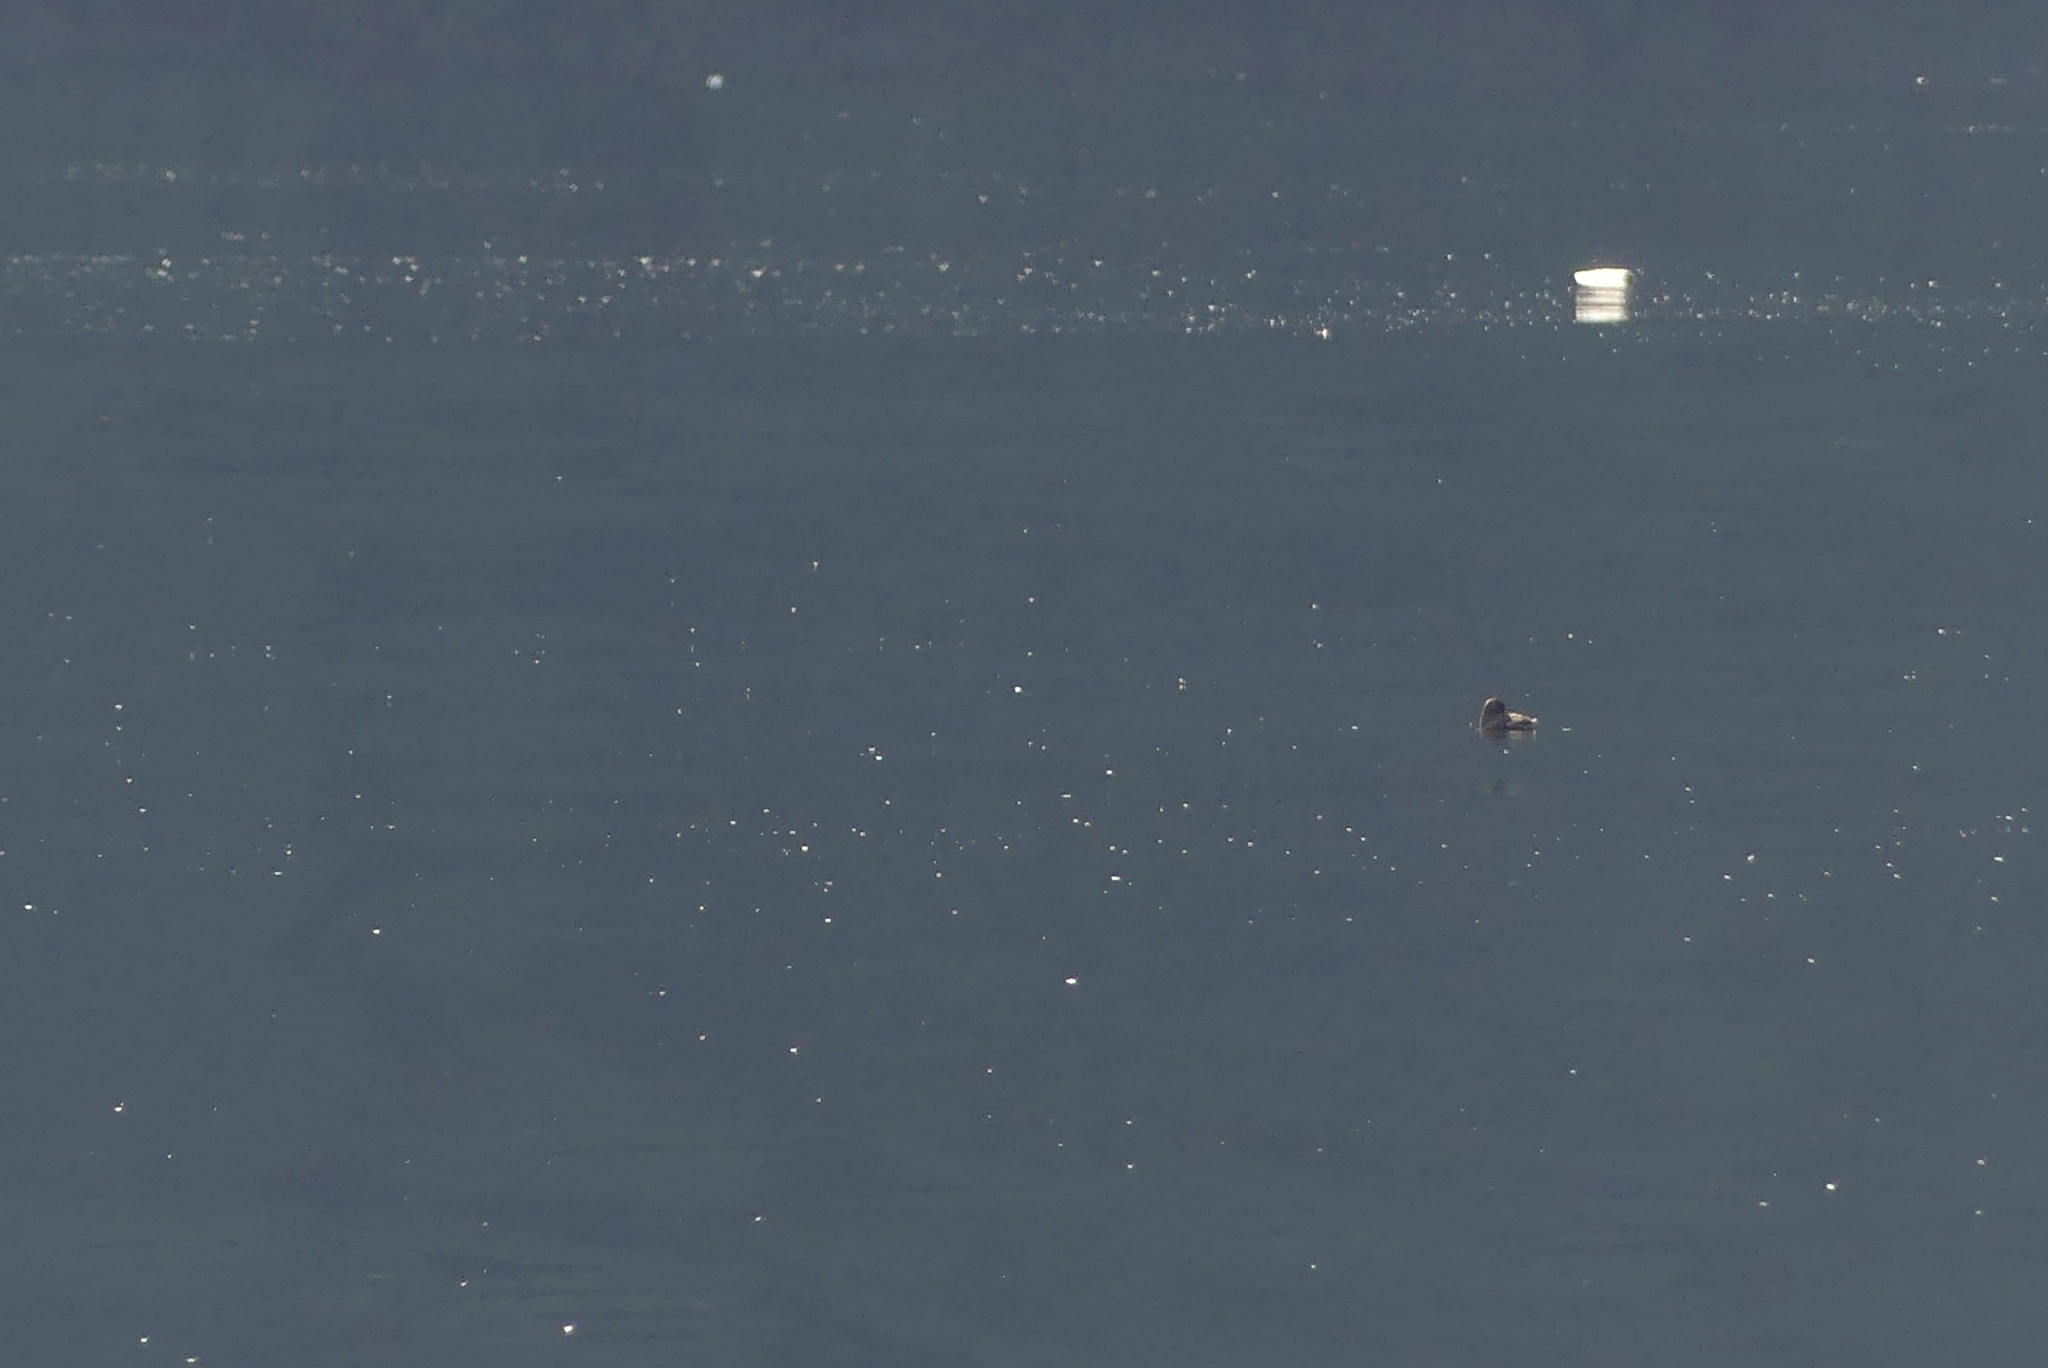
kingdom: Animalia
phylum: Chordata
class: Aves
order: Charadriiformes
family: Alcidae
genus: Brachyramphus
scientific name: Brachyramphus marmoratus
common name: Marbled murrelet
